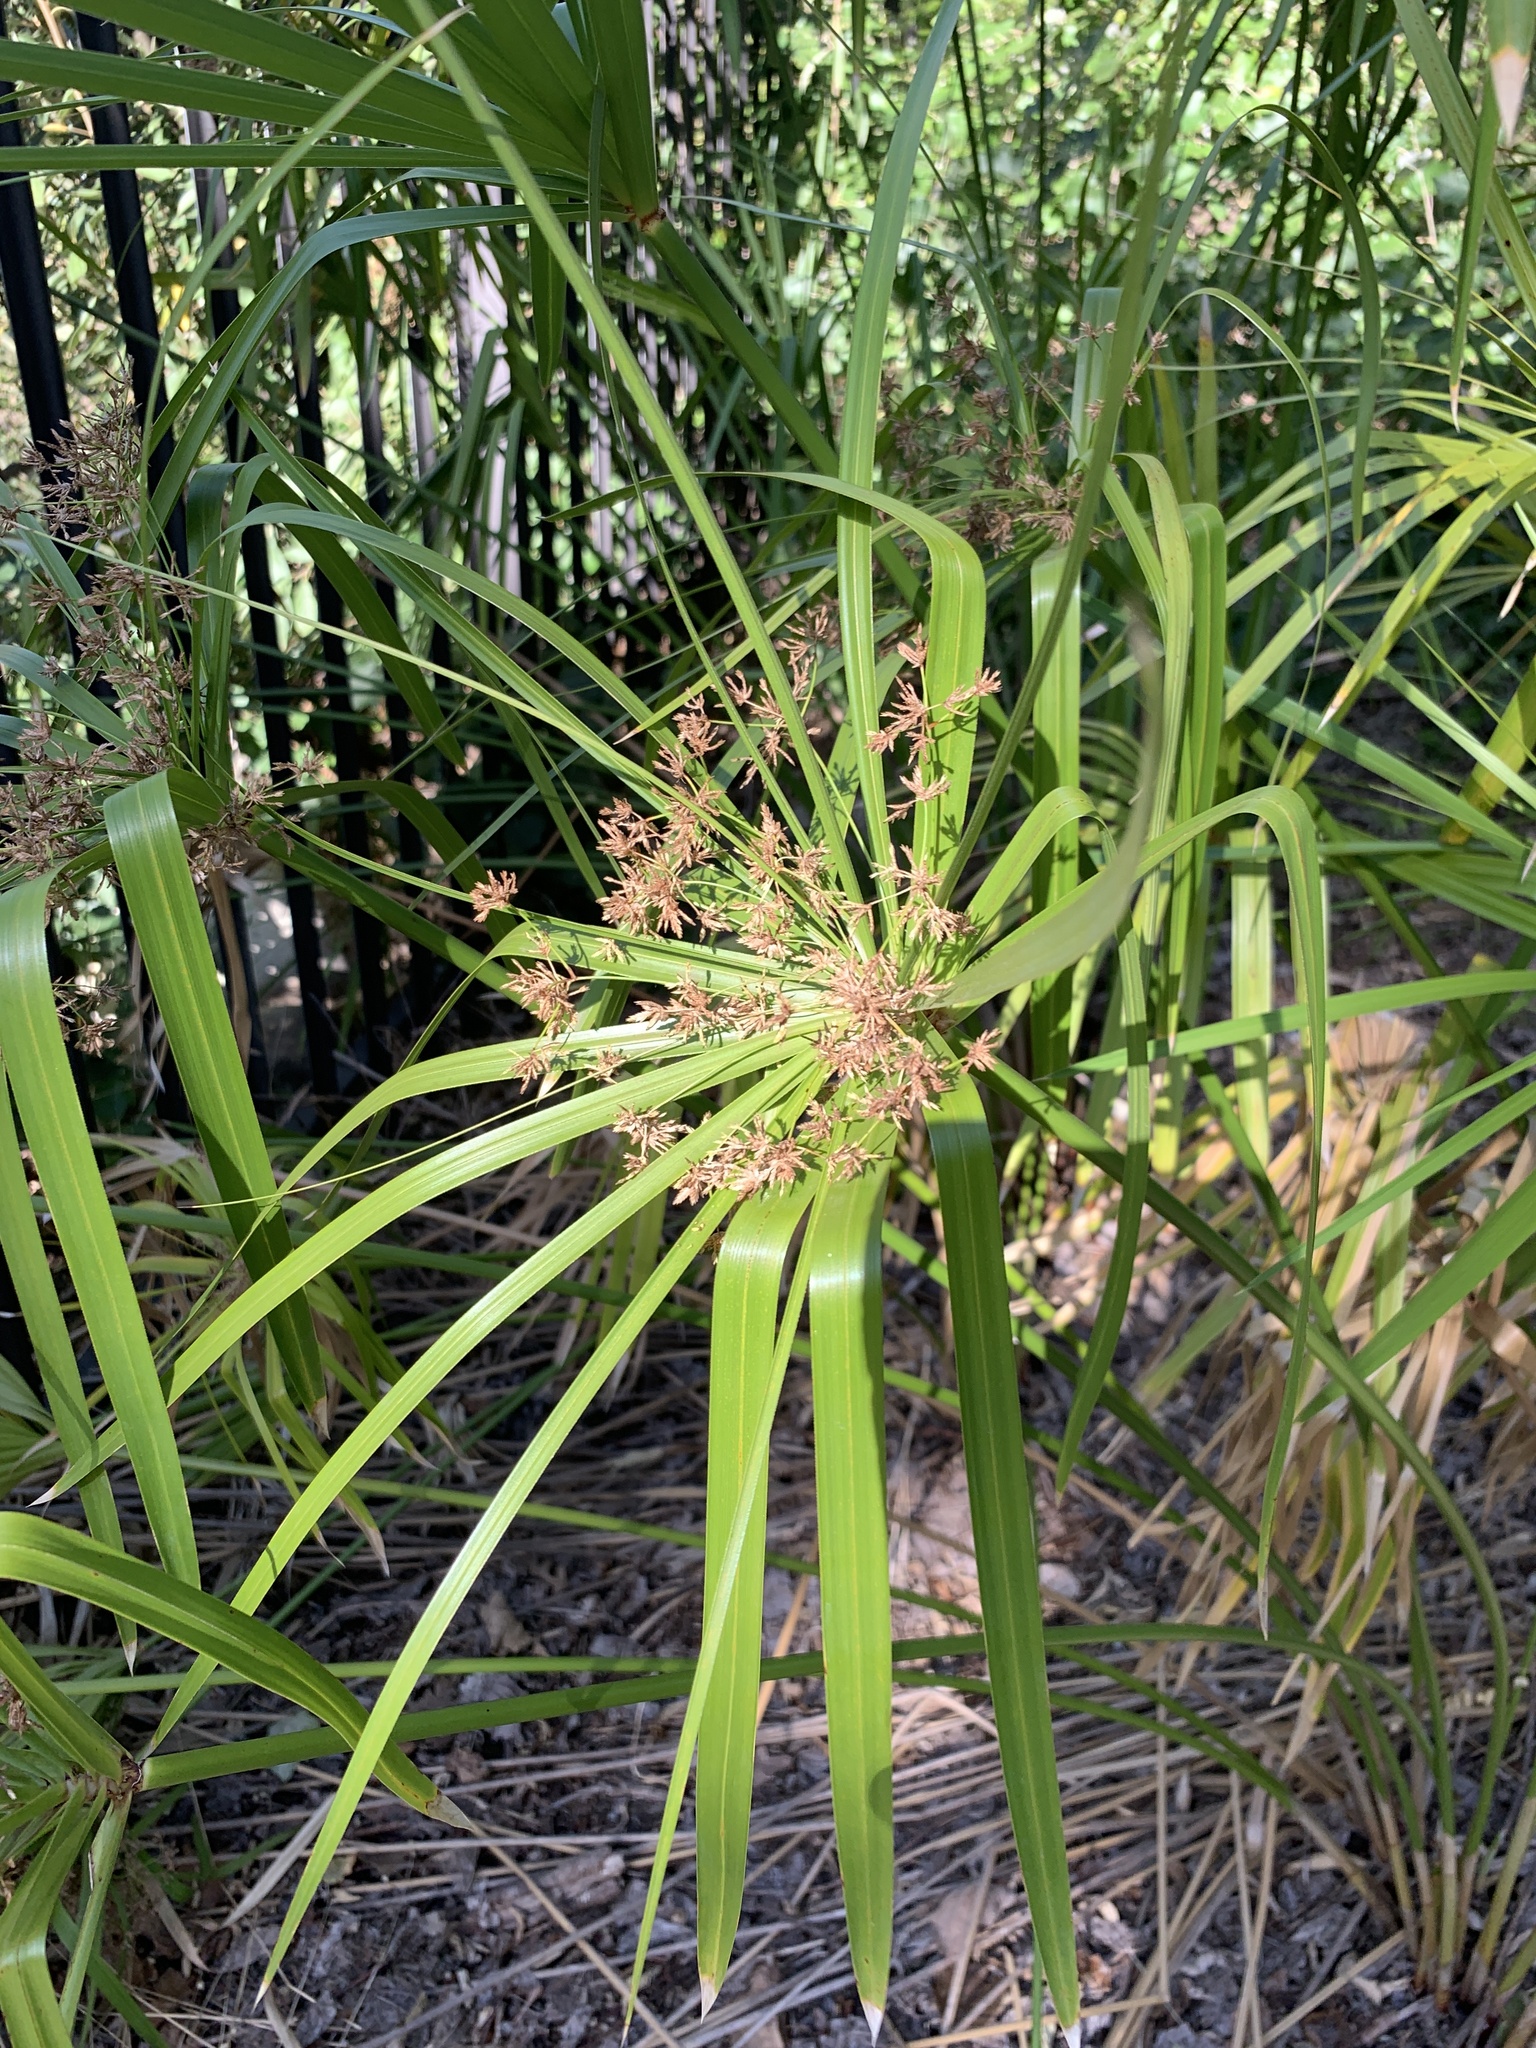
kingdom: Plantae
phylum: Tracheophyta
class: Liliopsida
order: Poales
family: Cyperaceae
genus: Cyperus
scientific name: Cyperus textilis
